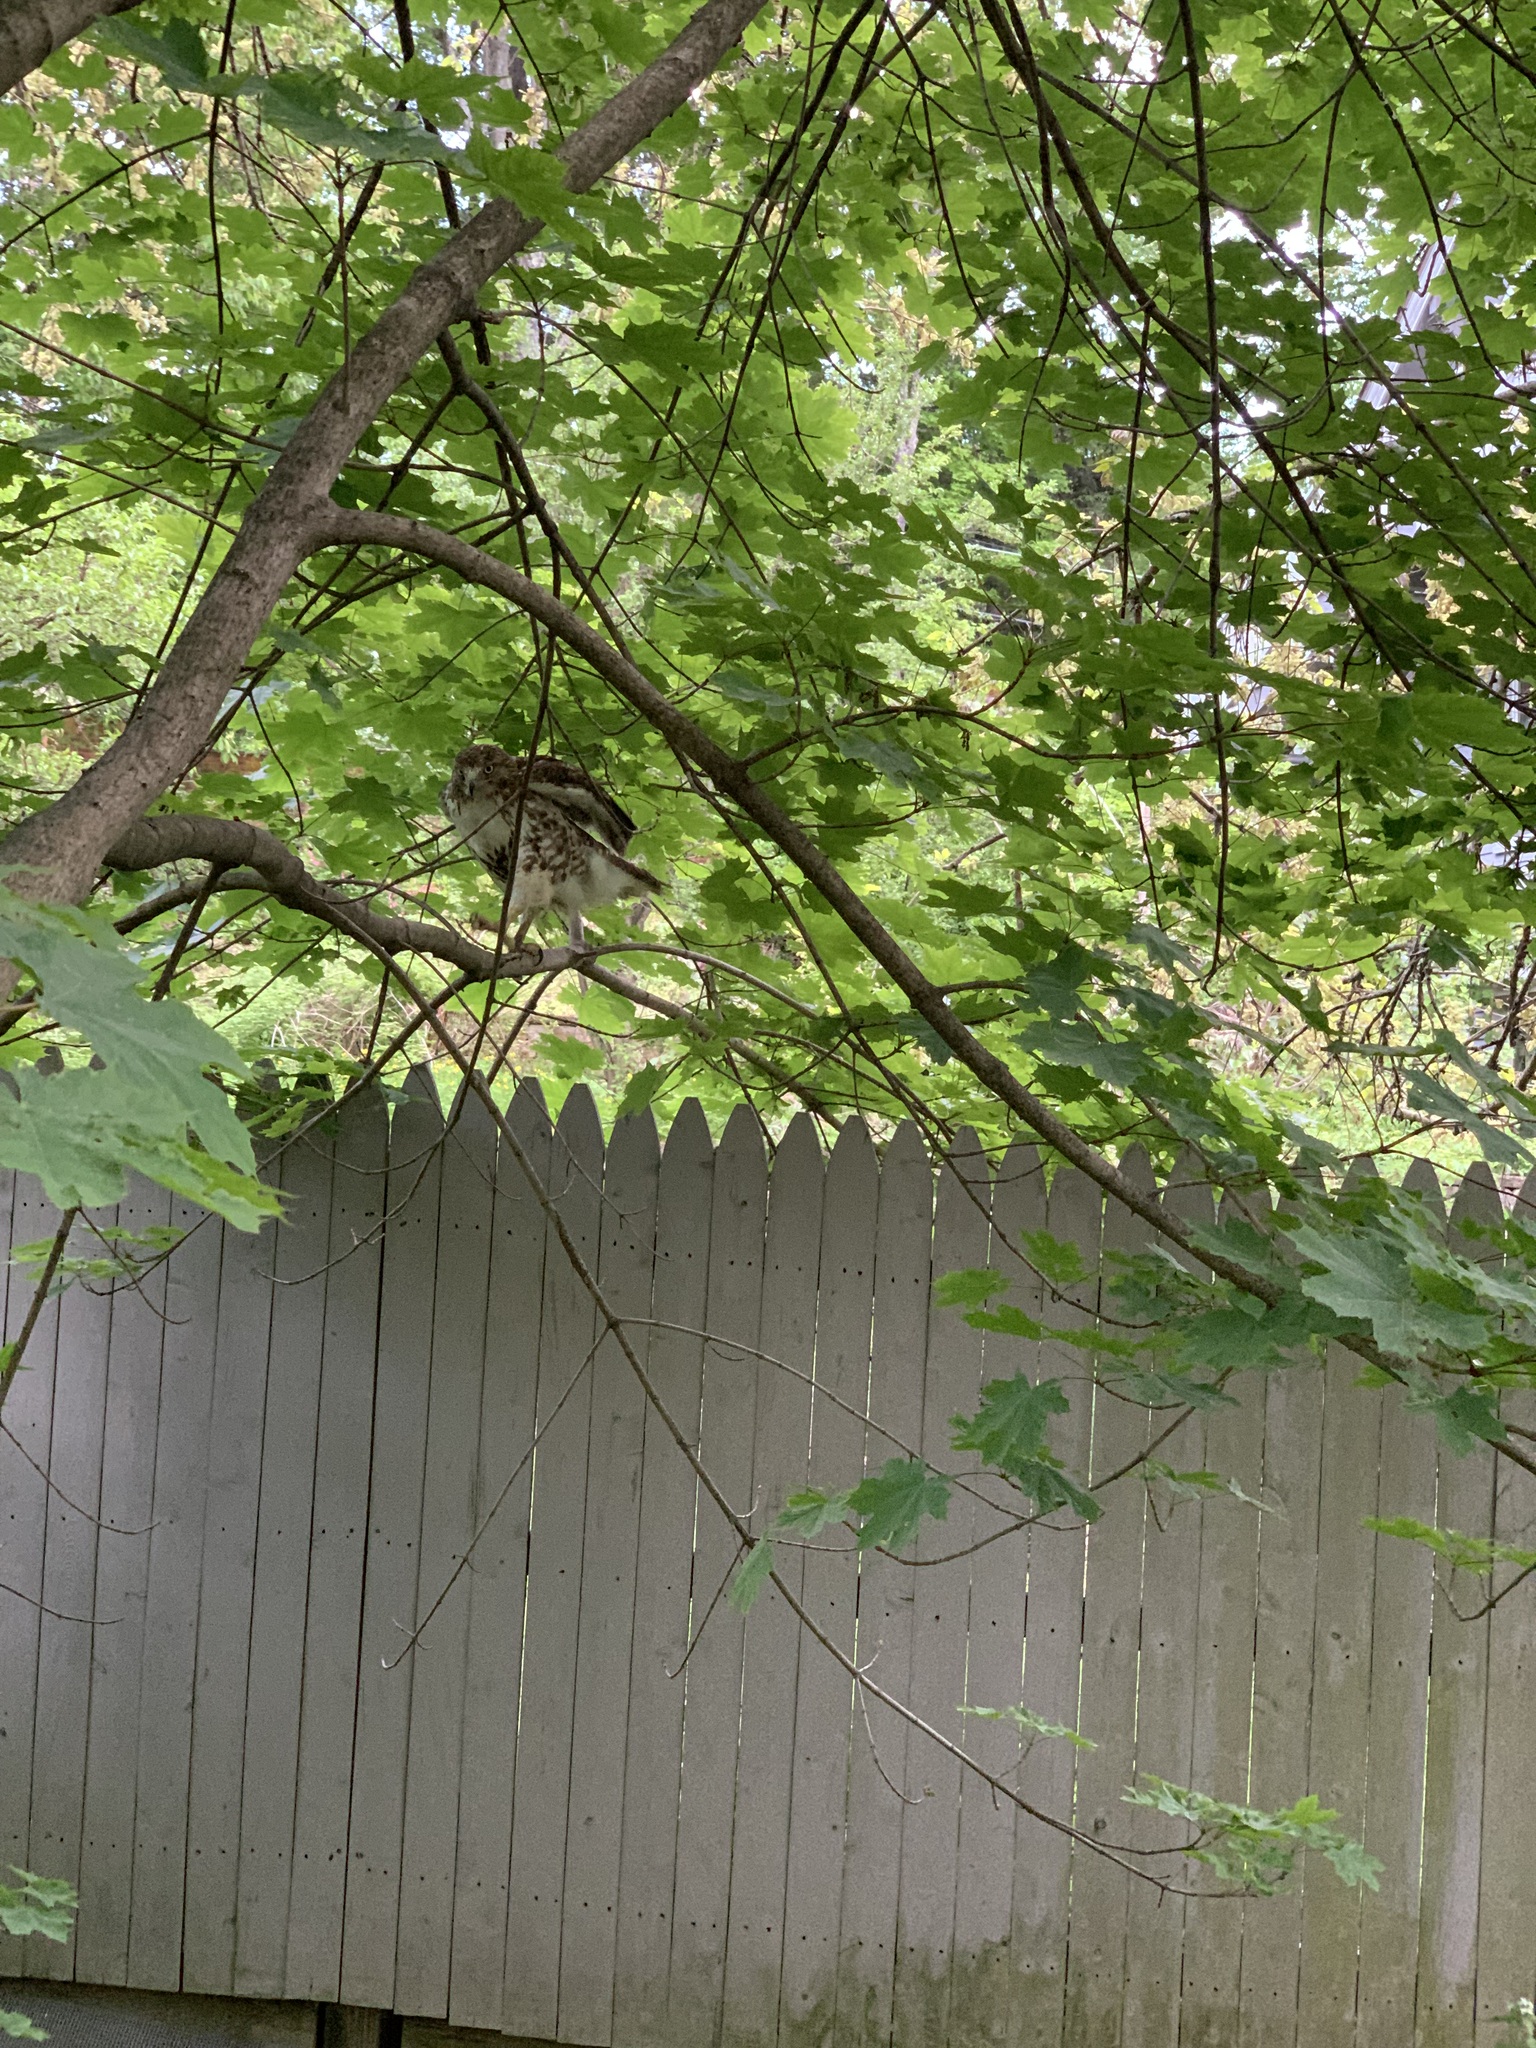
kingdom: Animalia
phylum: Chordata
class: Aves
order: Accipitriformes
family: Accipitridae
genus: Buteo
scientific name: Buteo jamaicensis
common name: Red-tailed hawk
